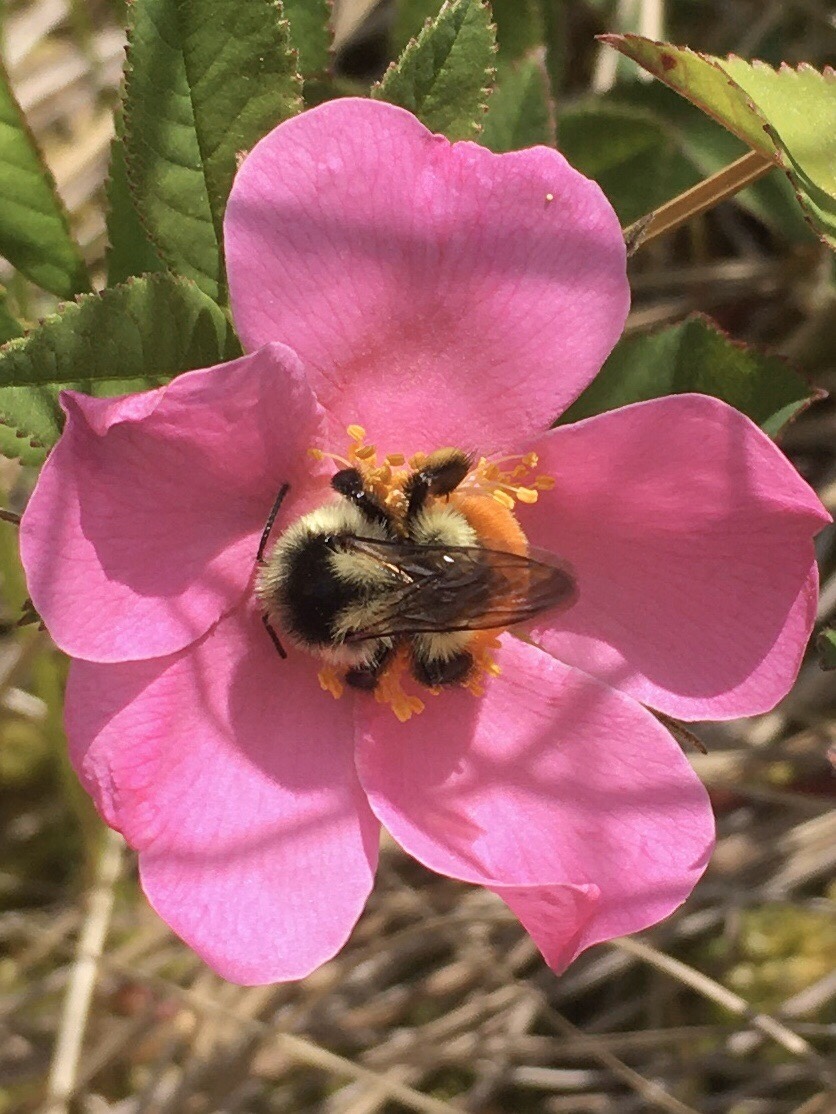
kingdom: Animalia
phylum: Arthropoda
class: Insecta
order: Hymenoptera
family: Apidae
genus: Bombus
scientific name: Bombus ternarius
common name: Tri-colored bumble bee
